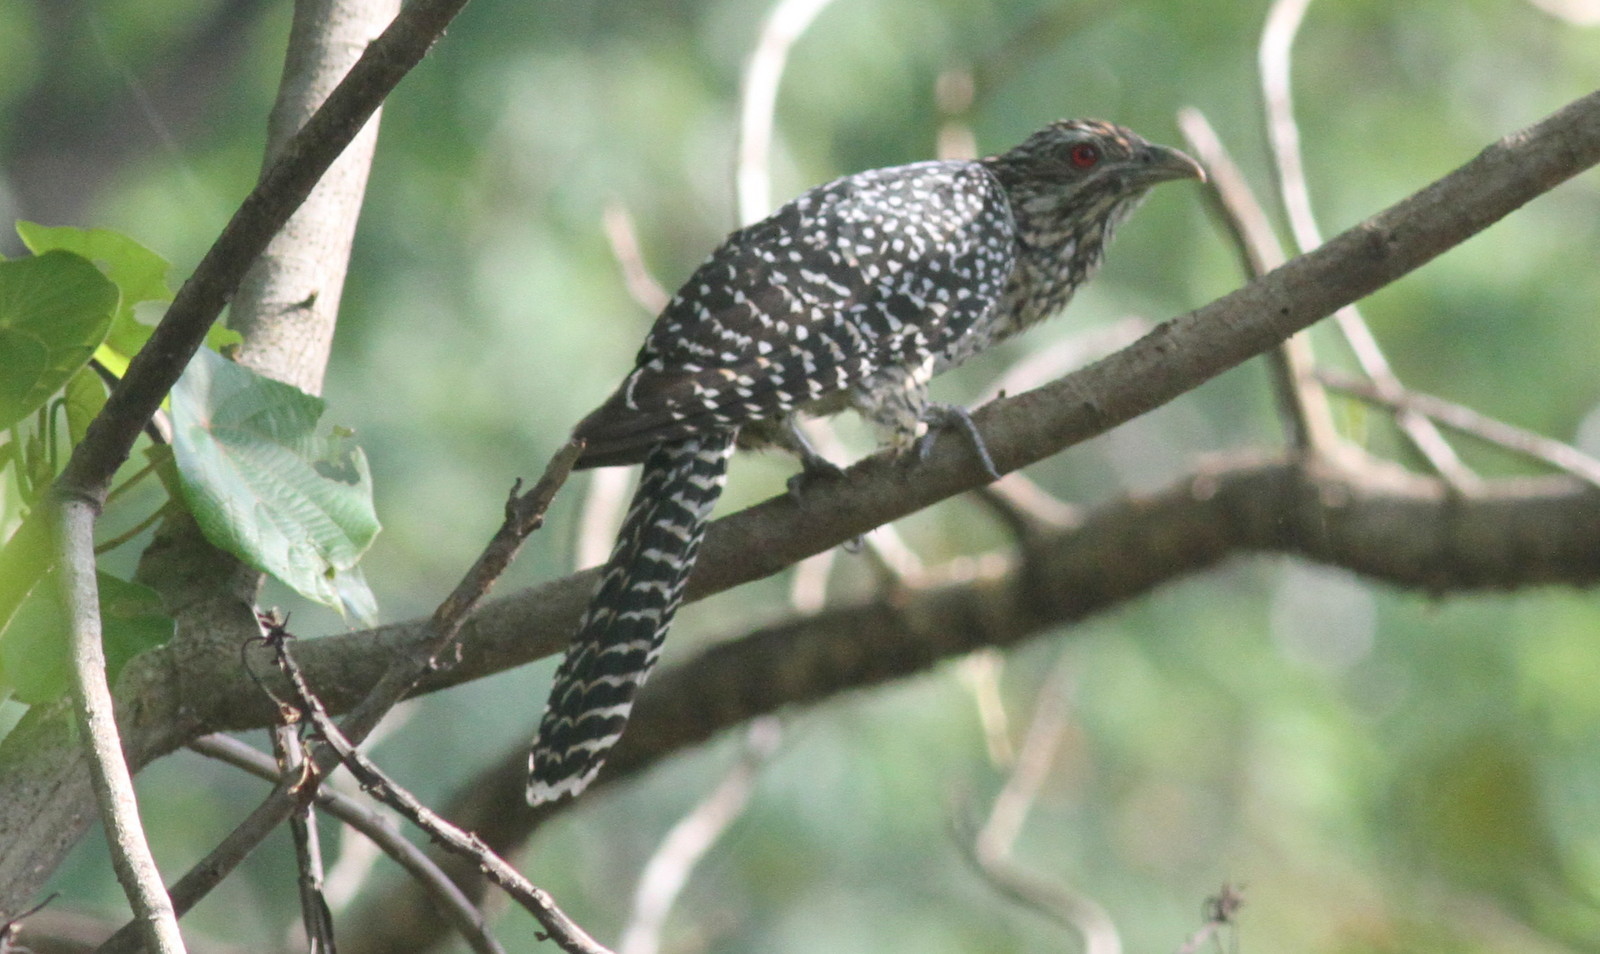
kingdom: Animalia
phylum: Chordata
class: Aves
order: Cuculiformes
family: Cuculidae
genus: Eudynamys
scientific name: Eudynamys scolopaceus
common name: Asian koel
